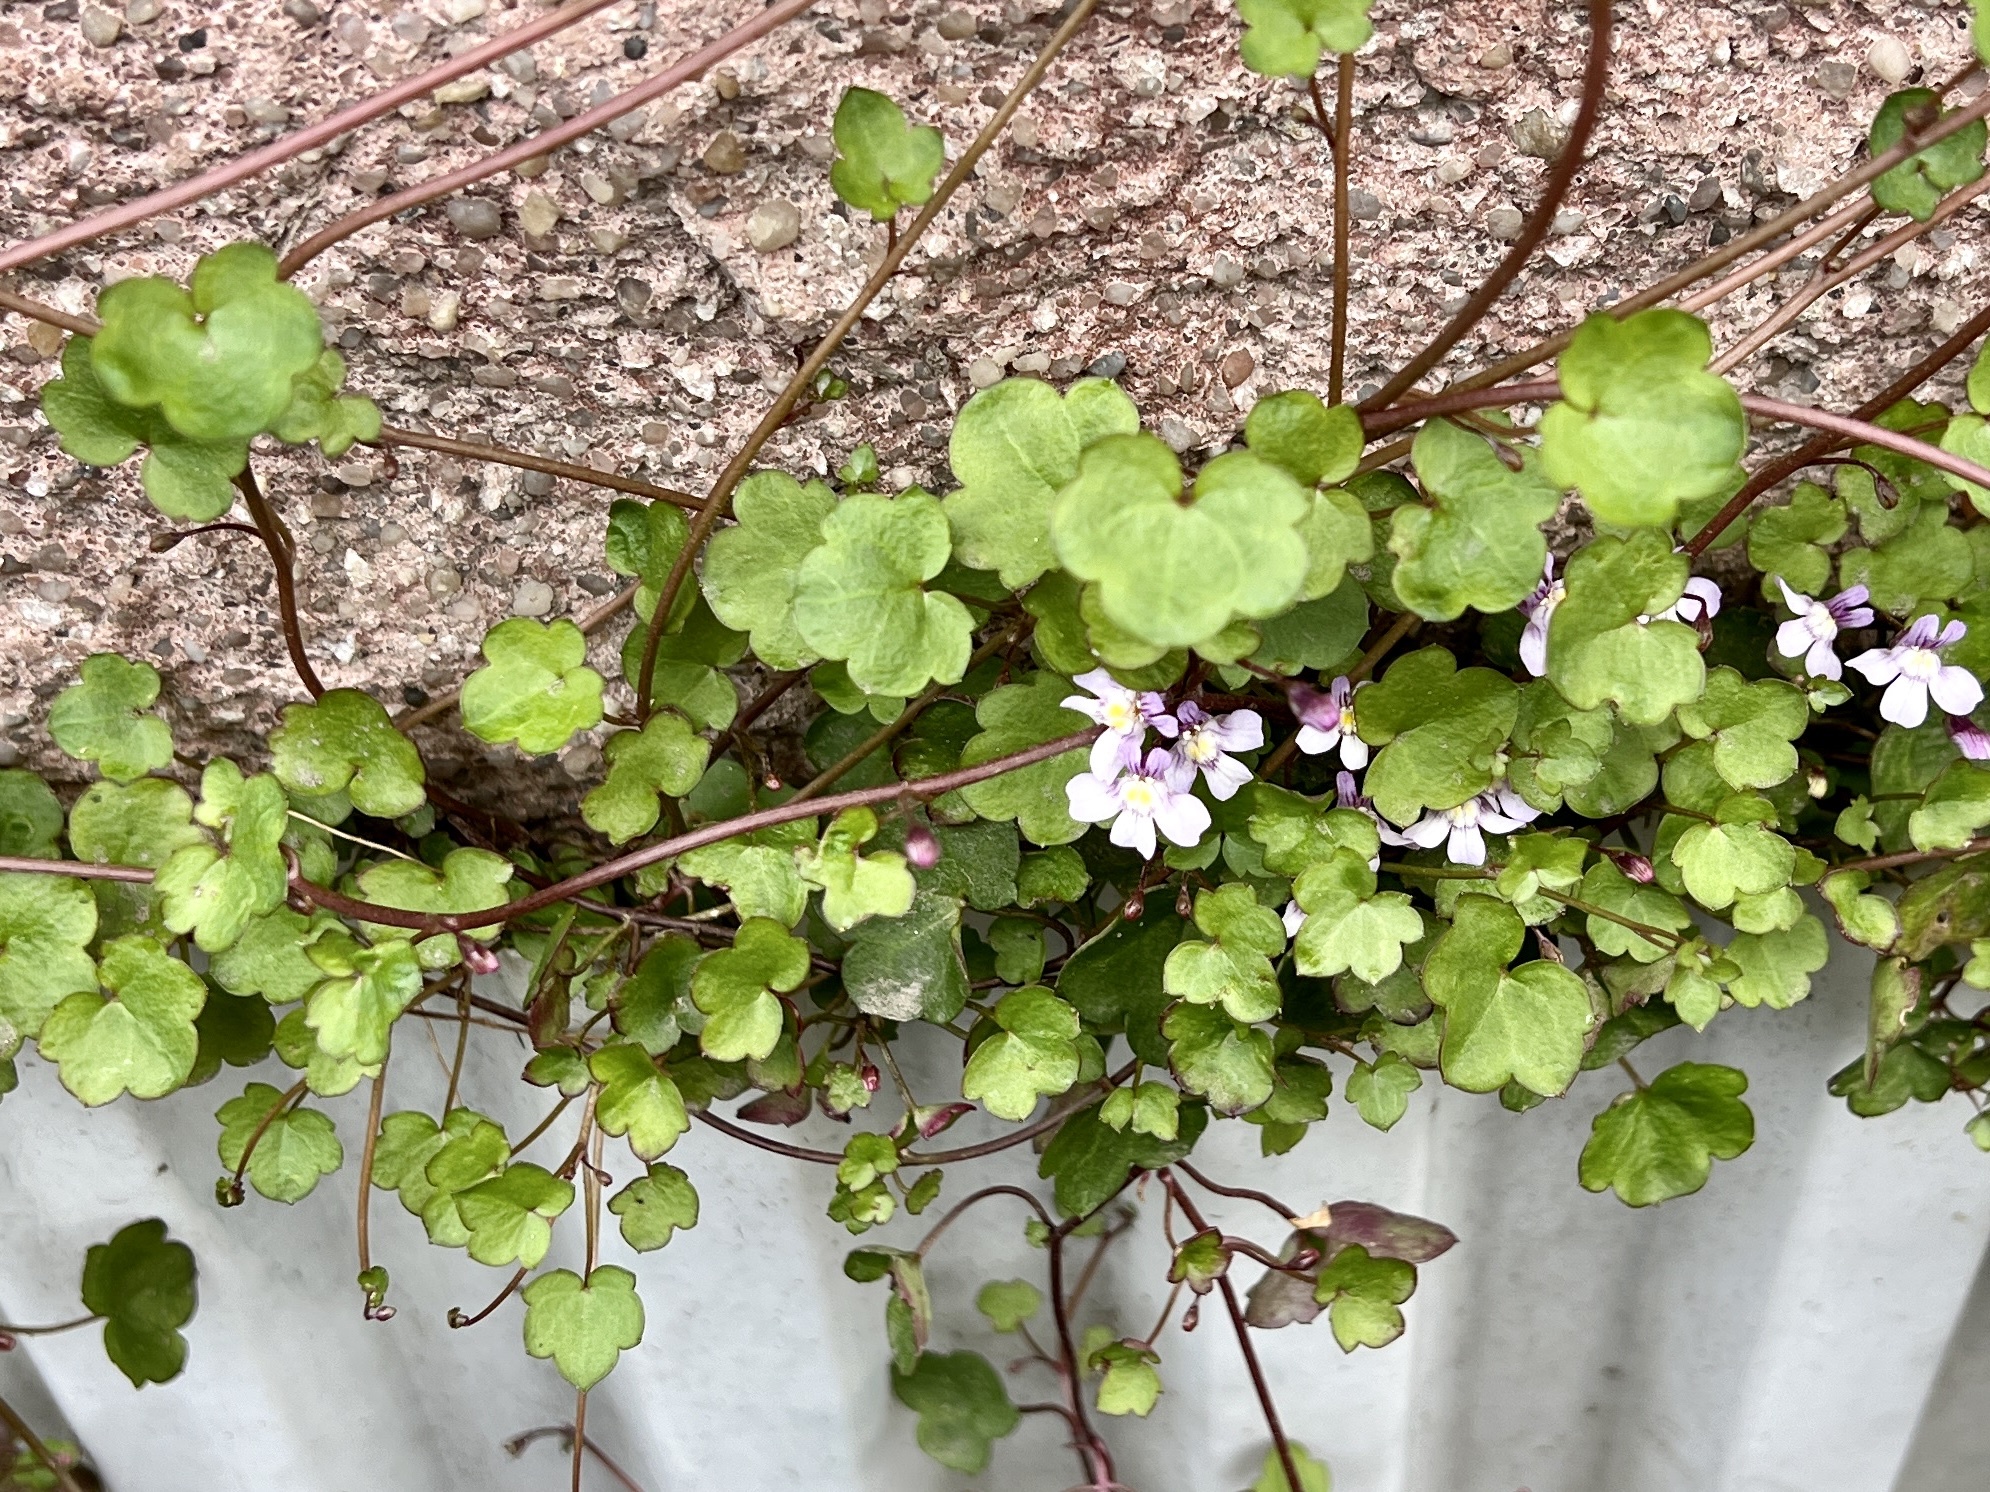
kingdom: Plantae
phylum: Tracheophyta
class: Magnoliopsida
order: Lamiales
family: Plantaginaceae
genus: Cymbalaria
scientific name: Cymbalaria muralis
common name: Ivy-leaved toadflax
